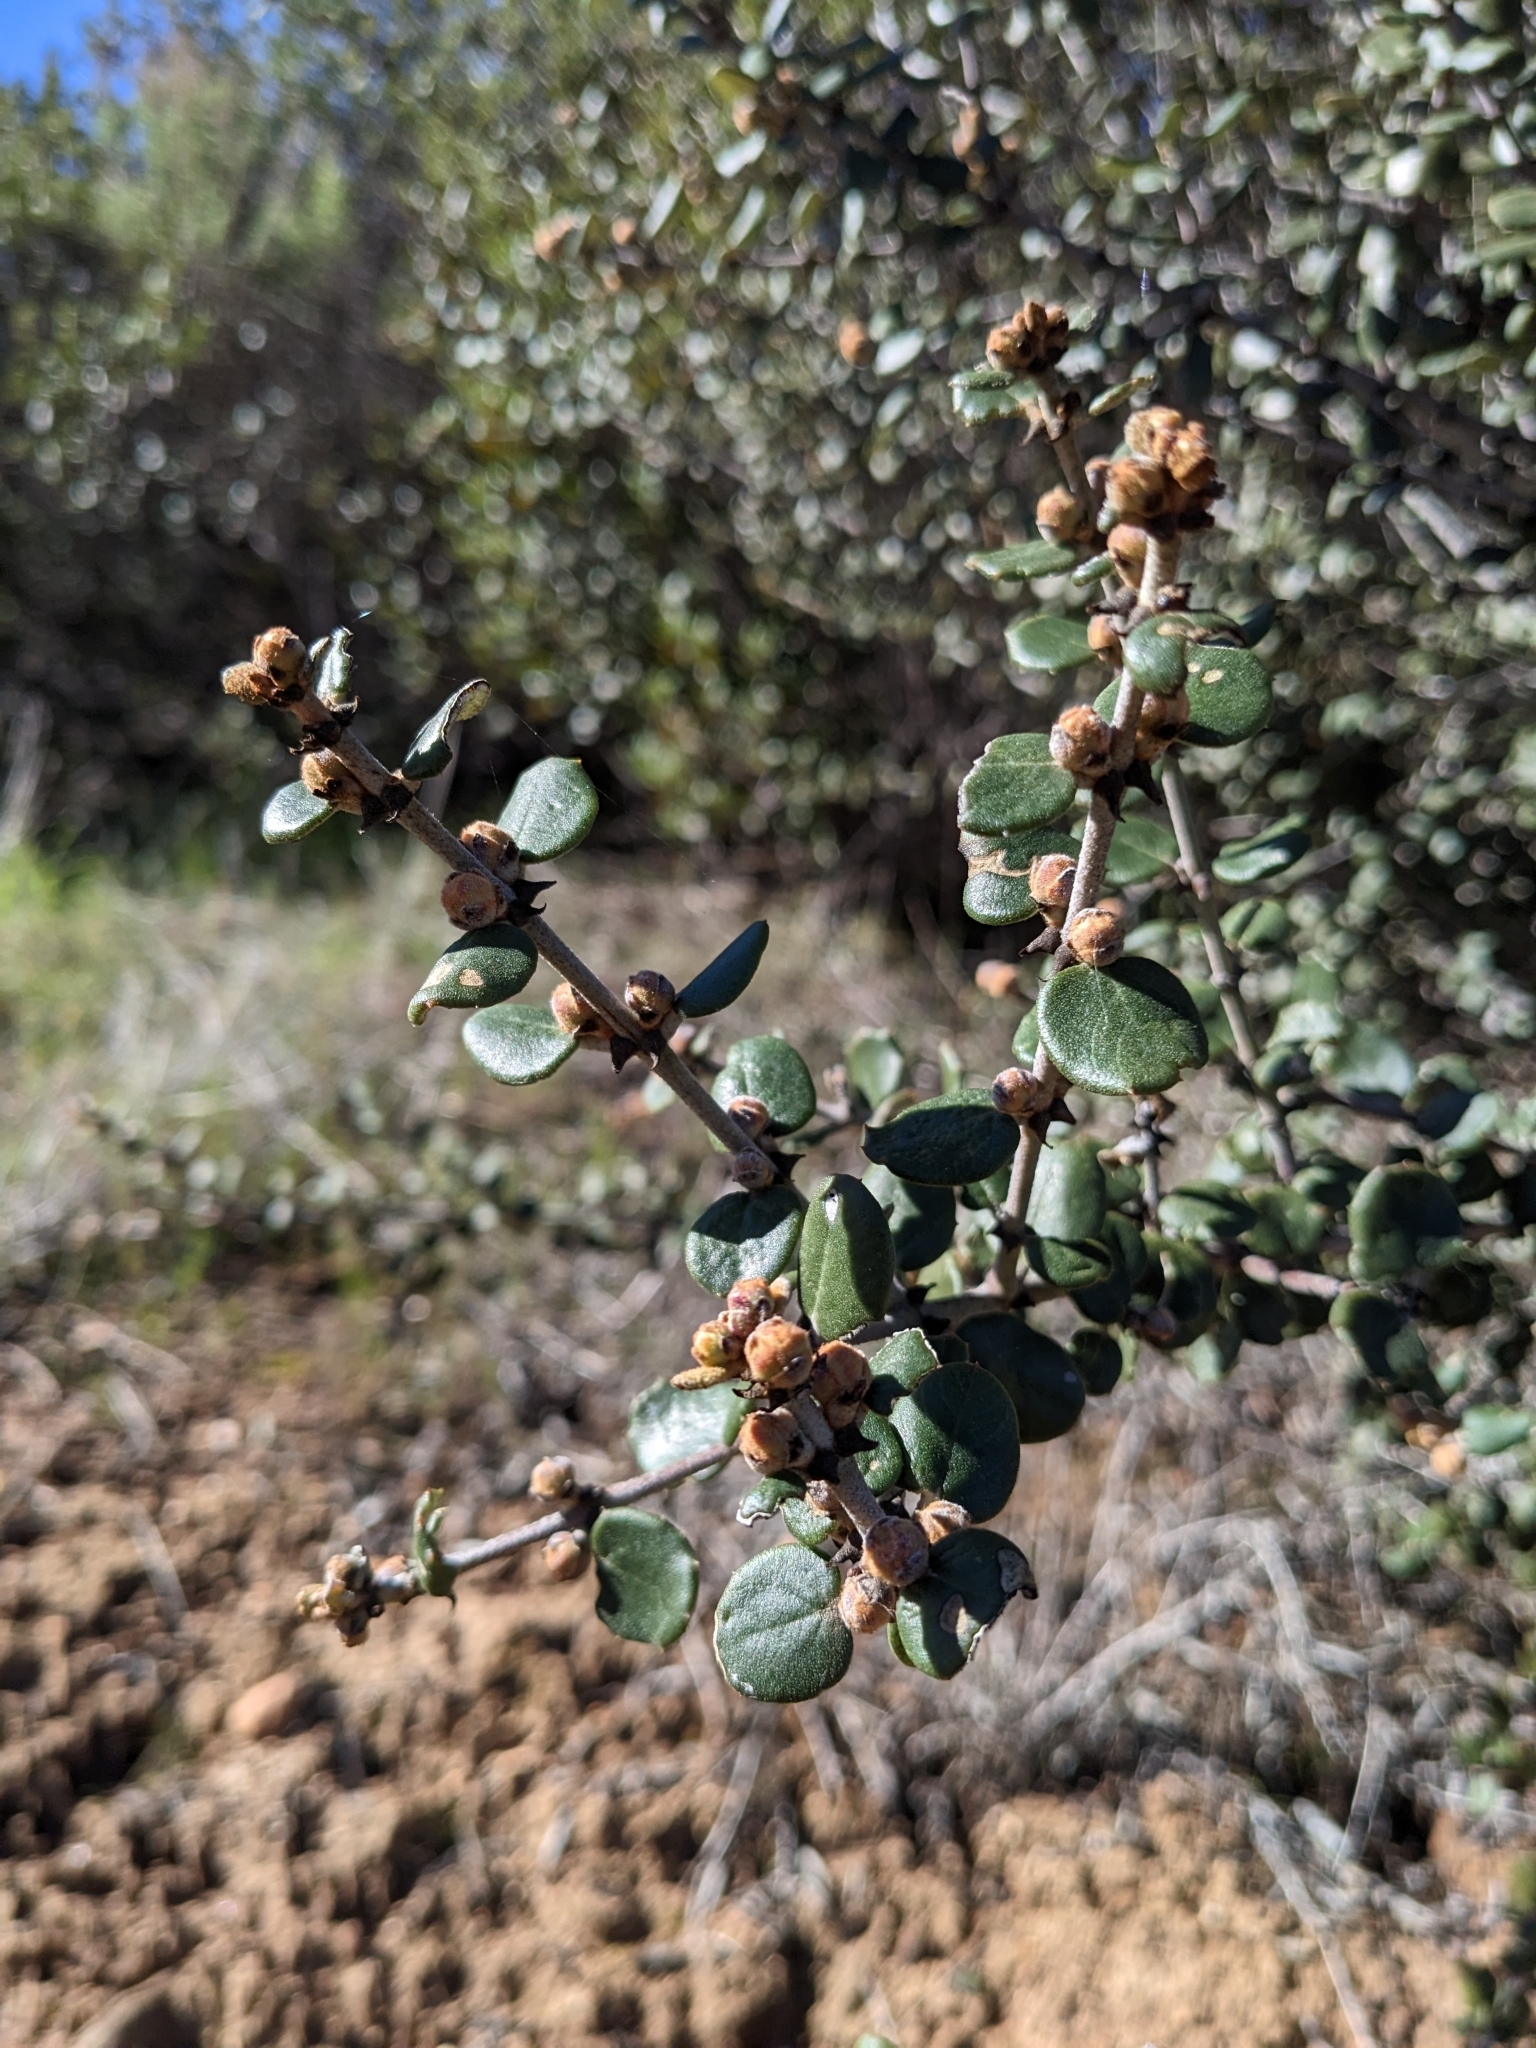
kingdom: Plantae
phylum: Tracheophyta
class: Magnoliopsida
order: Rosales
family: Rhamnaceae
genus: Ceanothus
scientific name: Ceanothus crassifolius
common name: Hoaryleaf ceanothus
